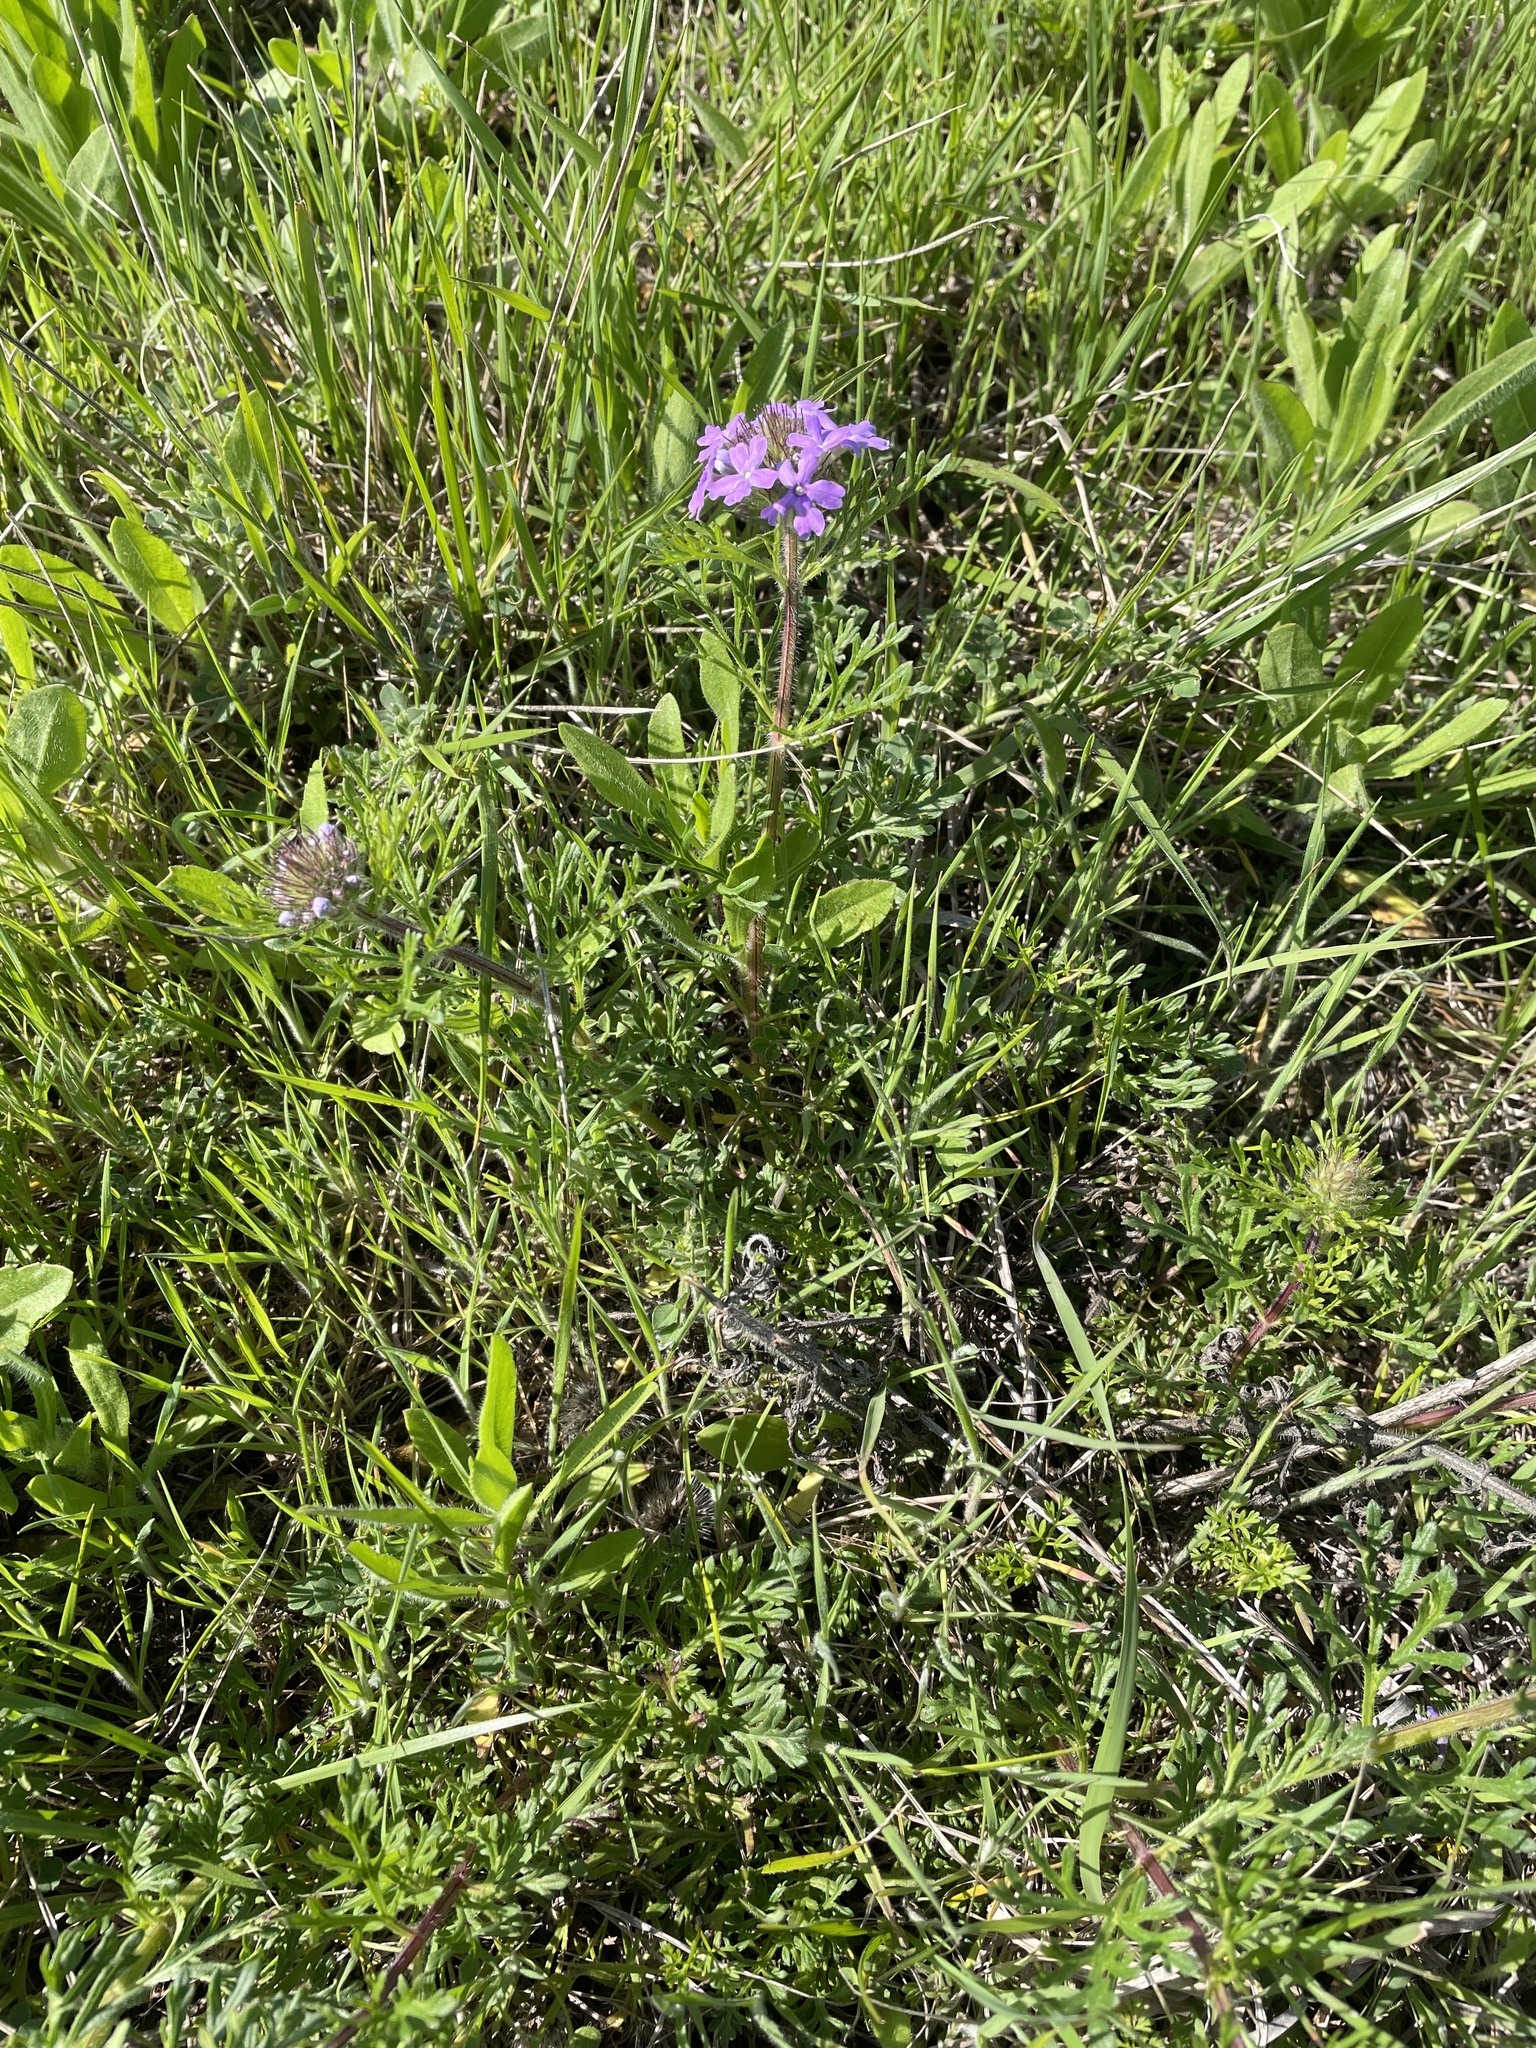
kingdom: Plantae
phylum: Tracheophyta
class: Magnoliopsida
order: Lamiales
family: Verbenaceae
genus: Verbena
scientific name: Verbena bipinnatifida
